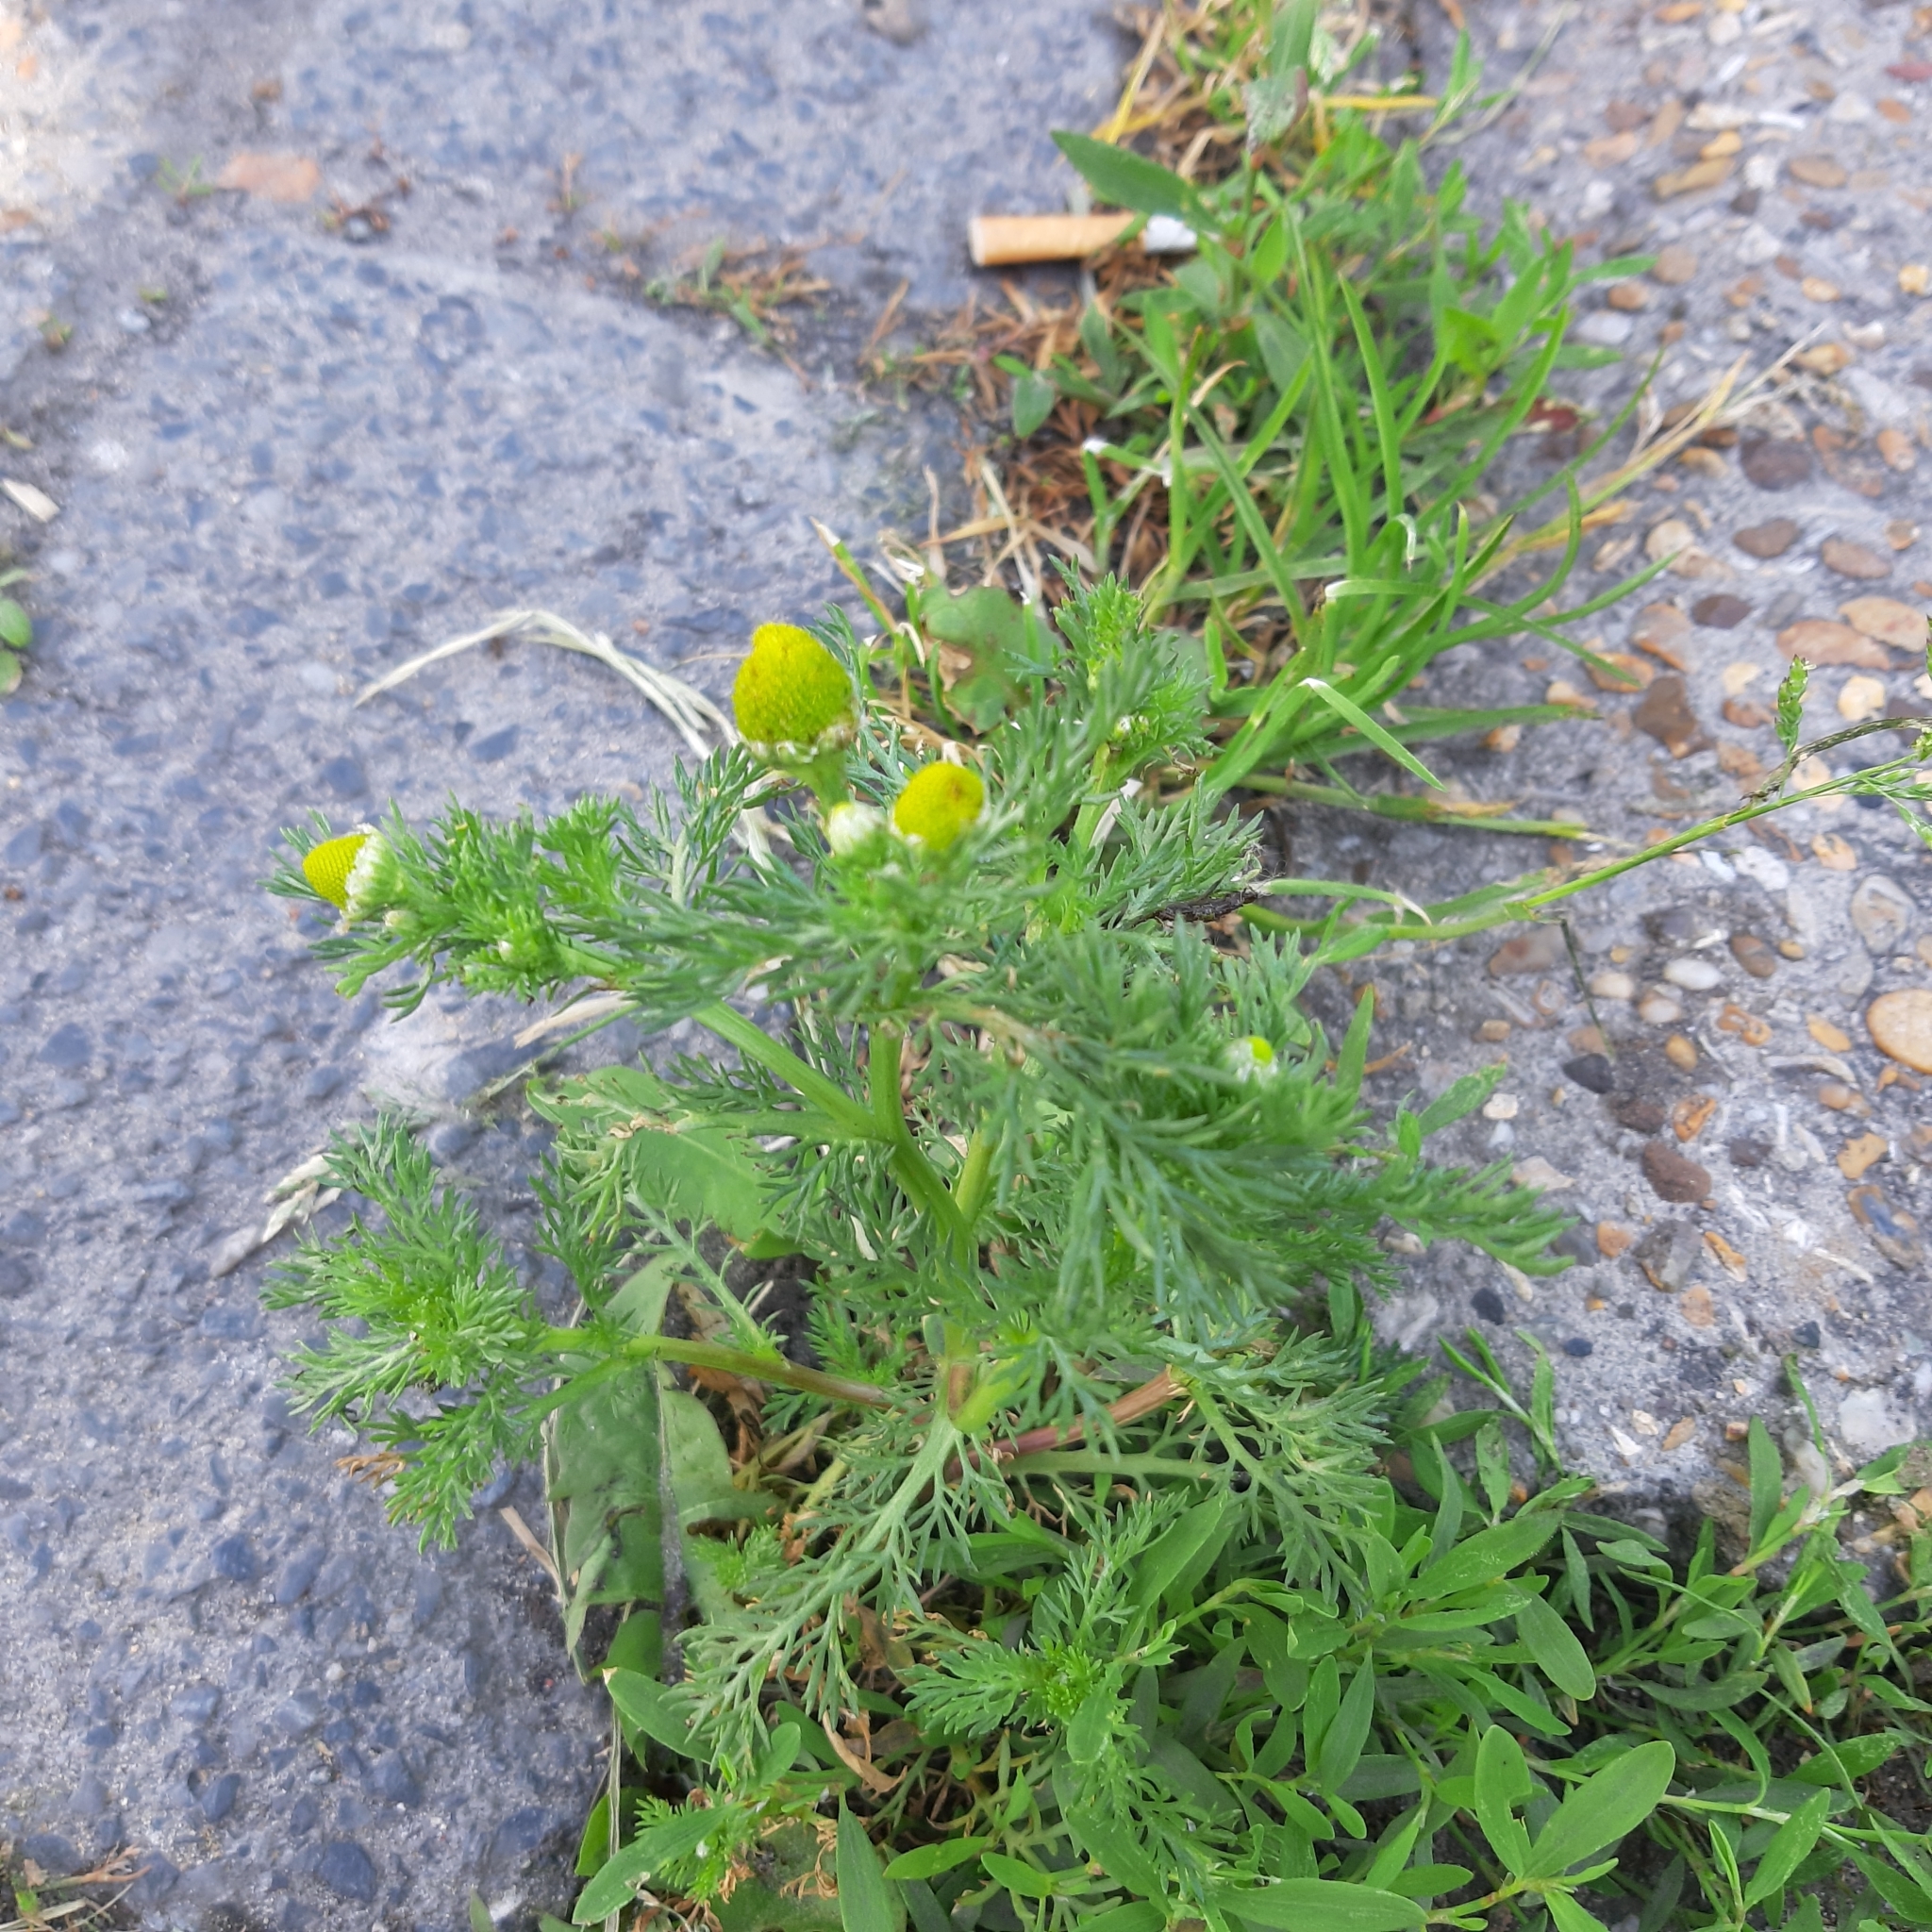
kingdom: Plantae
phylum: Tracheophyta
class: Magnoliopsida
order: Asterales
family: Asteraceae
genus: Matricaria
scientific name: Matricaria discoidea
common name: Disc mayweed
